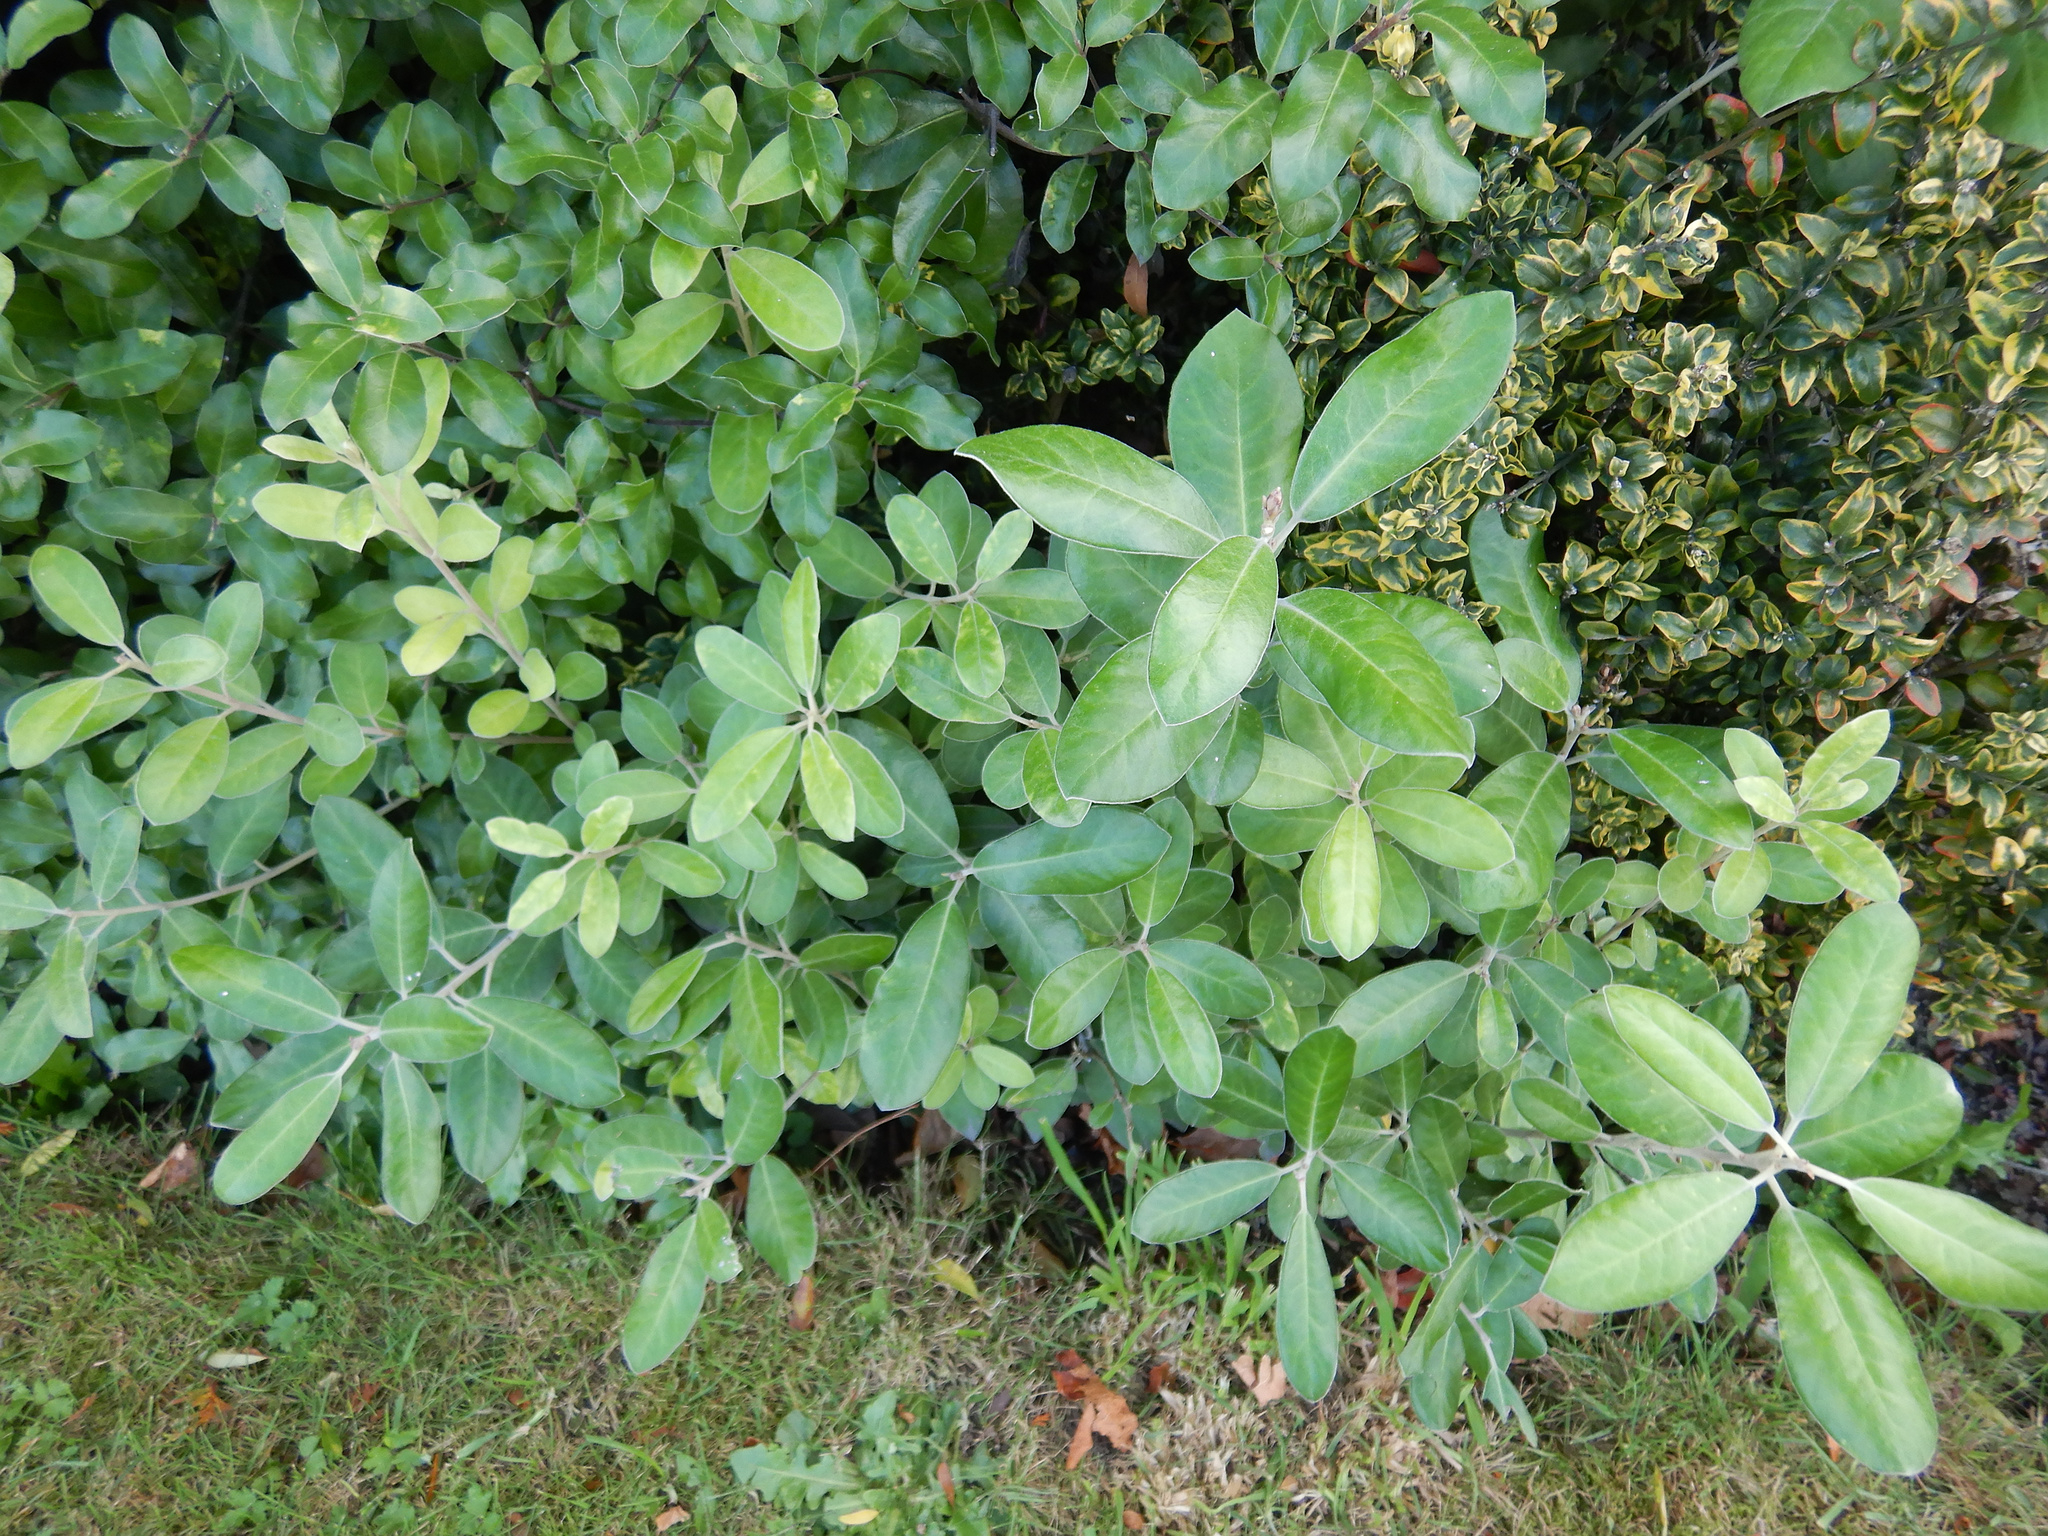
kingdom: Plantae
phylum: Tracheophyta
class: Magnoliopsida
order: Apiales
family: Pittosporaceae
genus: Pittosporum
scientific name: Pittosporum ralphii
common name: Ralph's desertwillow
